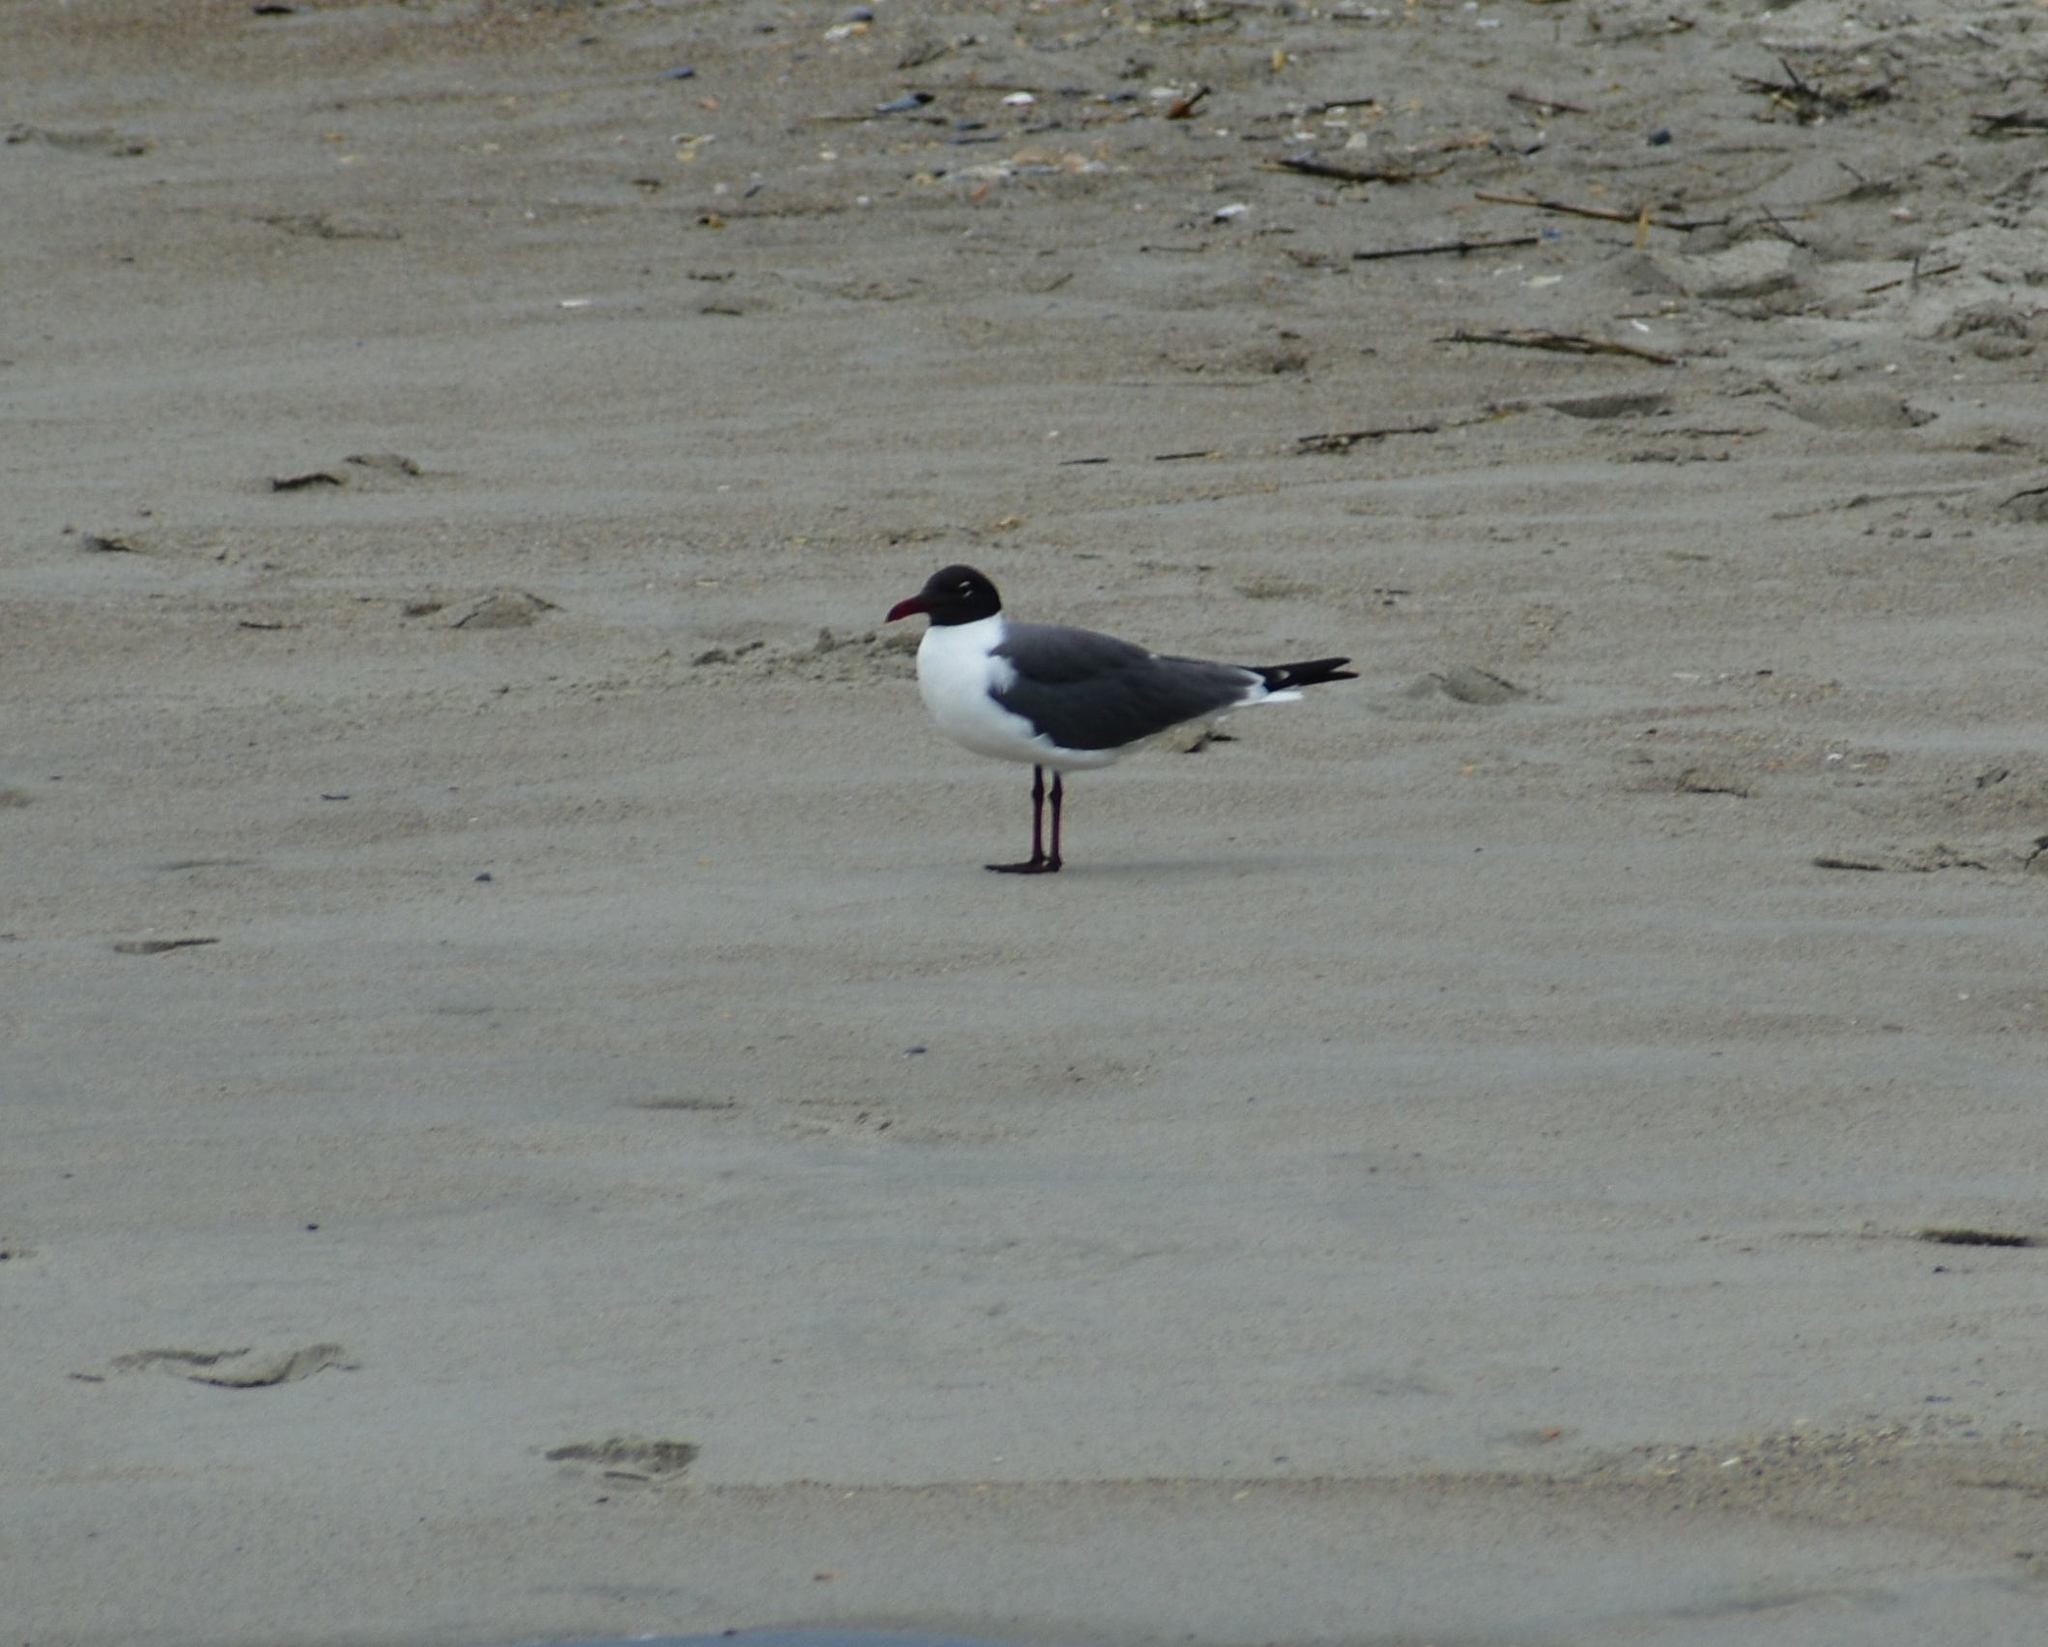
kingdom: Animalia
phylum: Chordata
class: Aves
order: Charadriiformes
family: Laridae
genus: Leucophaeus
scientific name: Leucophaeus atricilla
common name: Laughing gull
